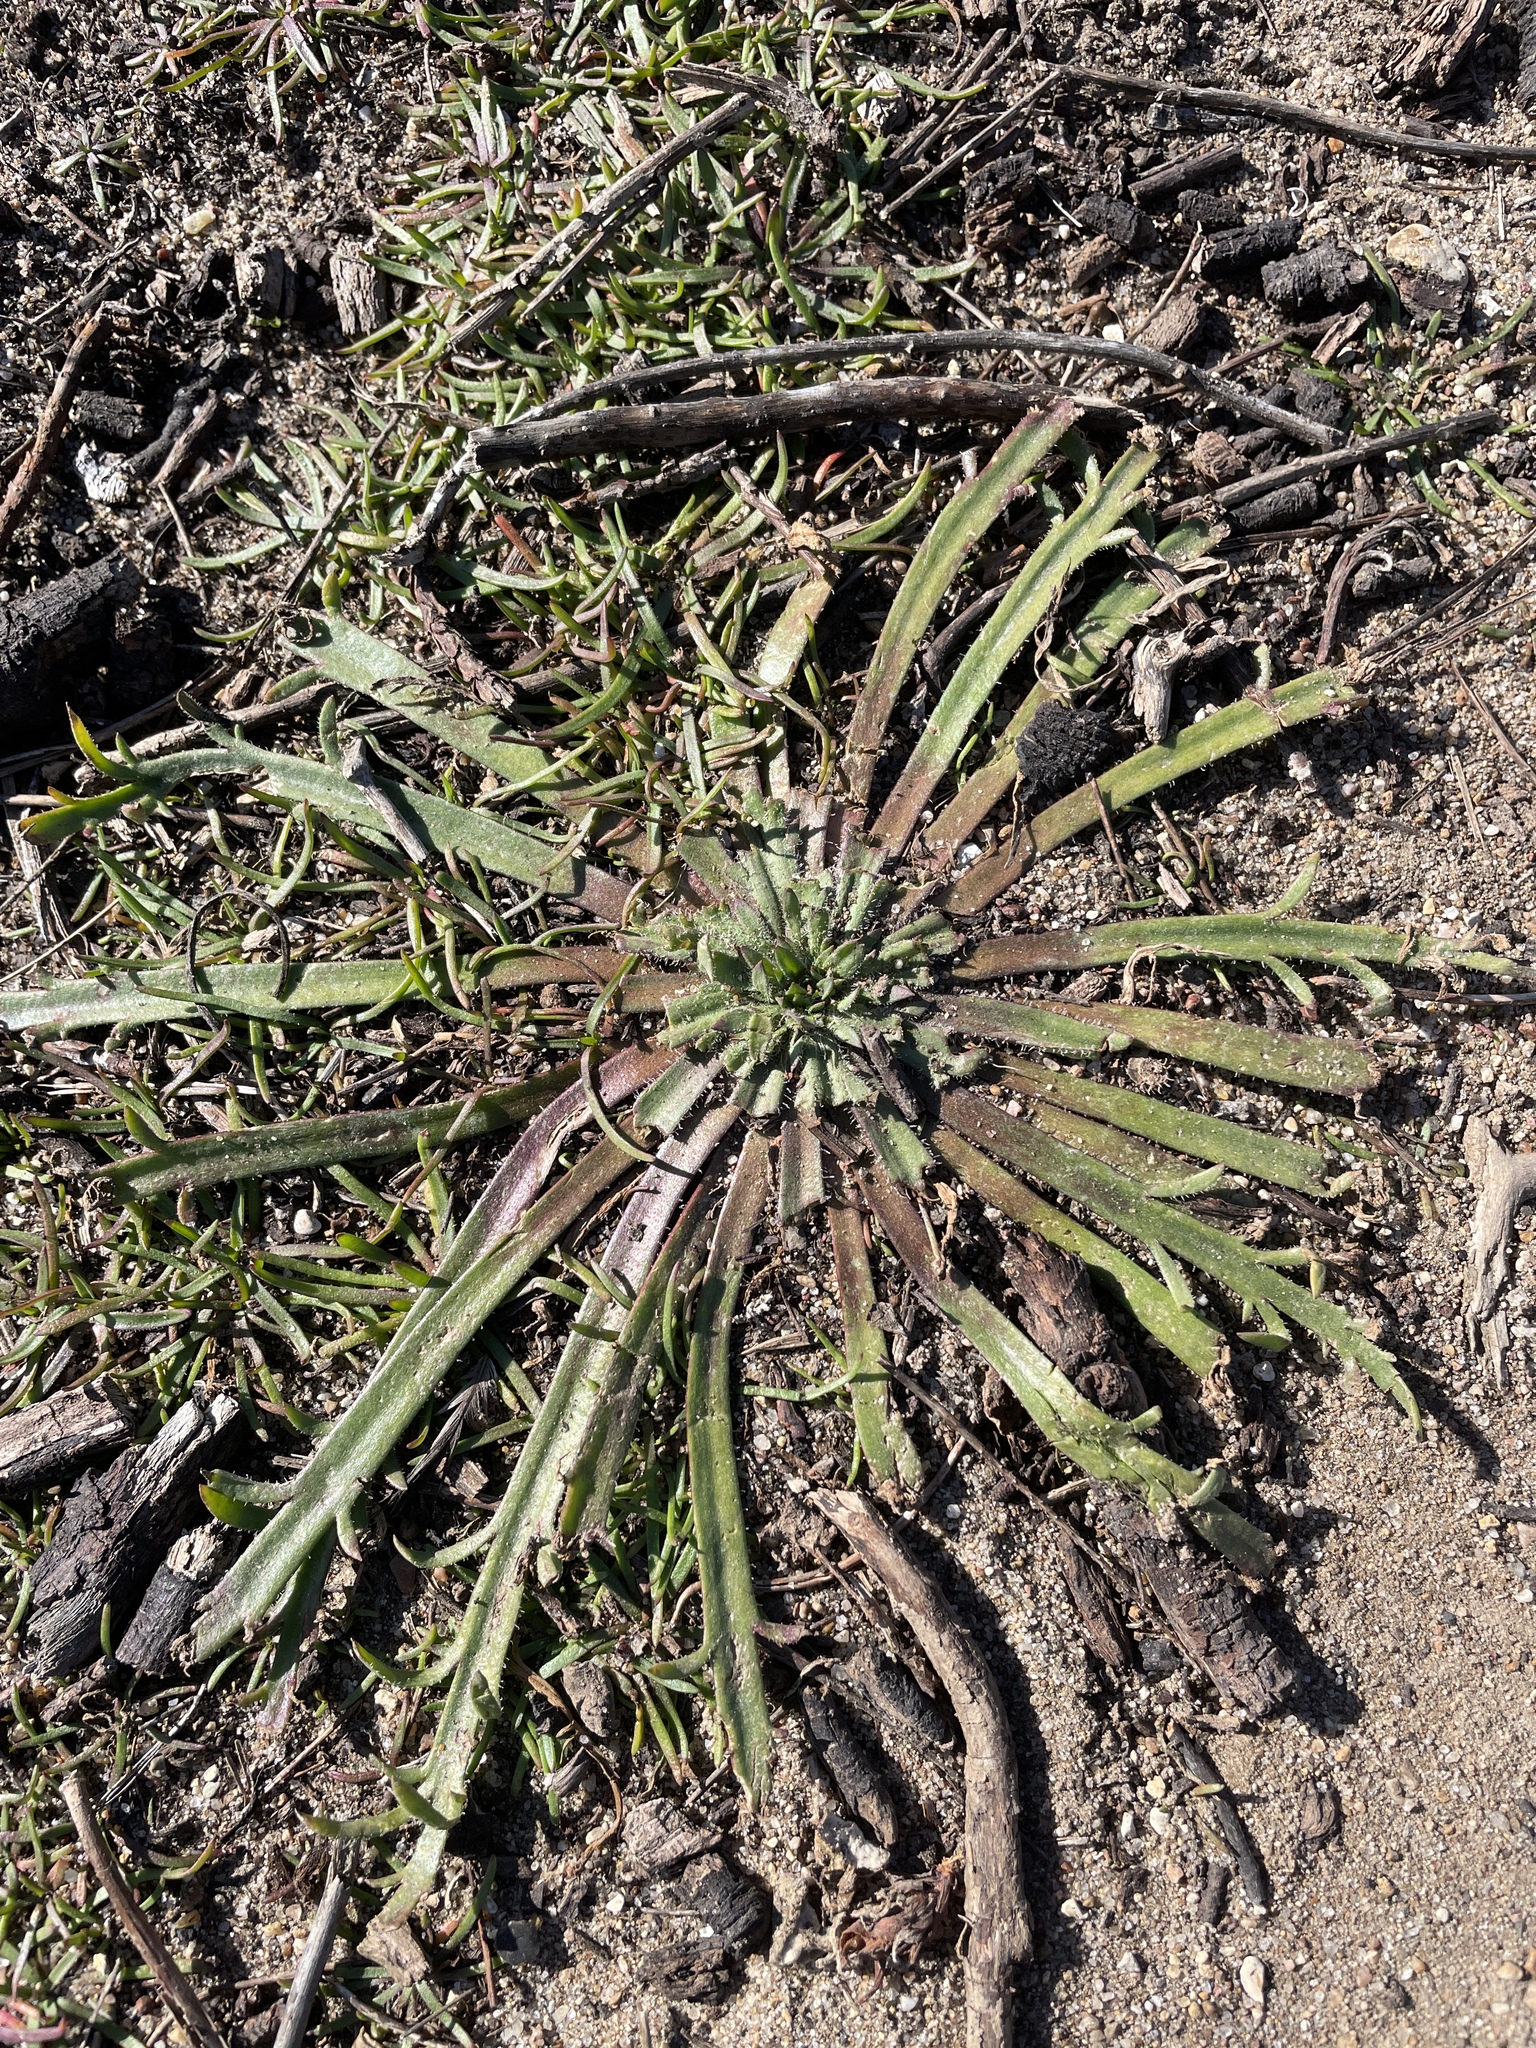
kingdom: Plantae
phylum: Tracheophyta
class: Magnoliopsida
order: Lamiales
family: Plantaginaceae
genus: Plantago
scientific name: Plantago coronopus
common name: Buck's-horn plantain
